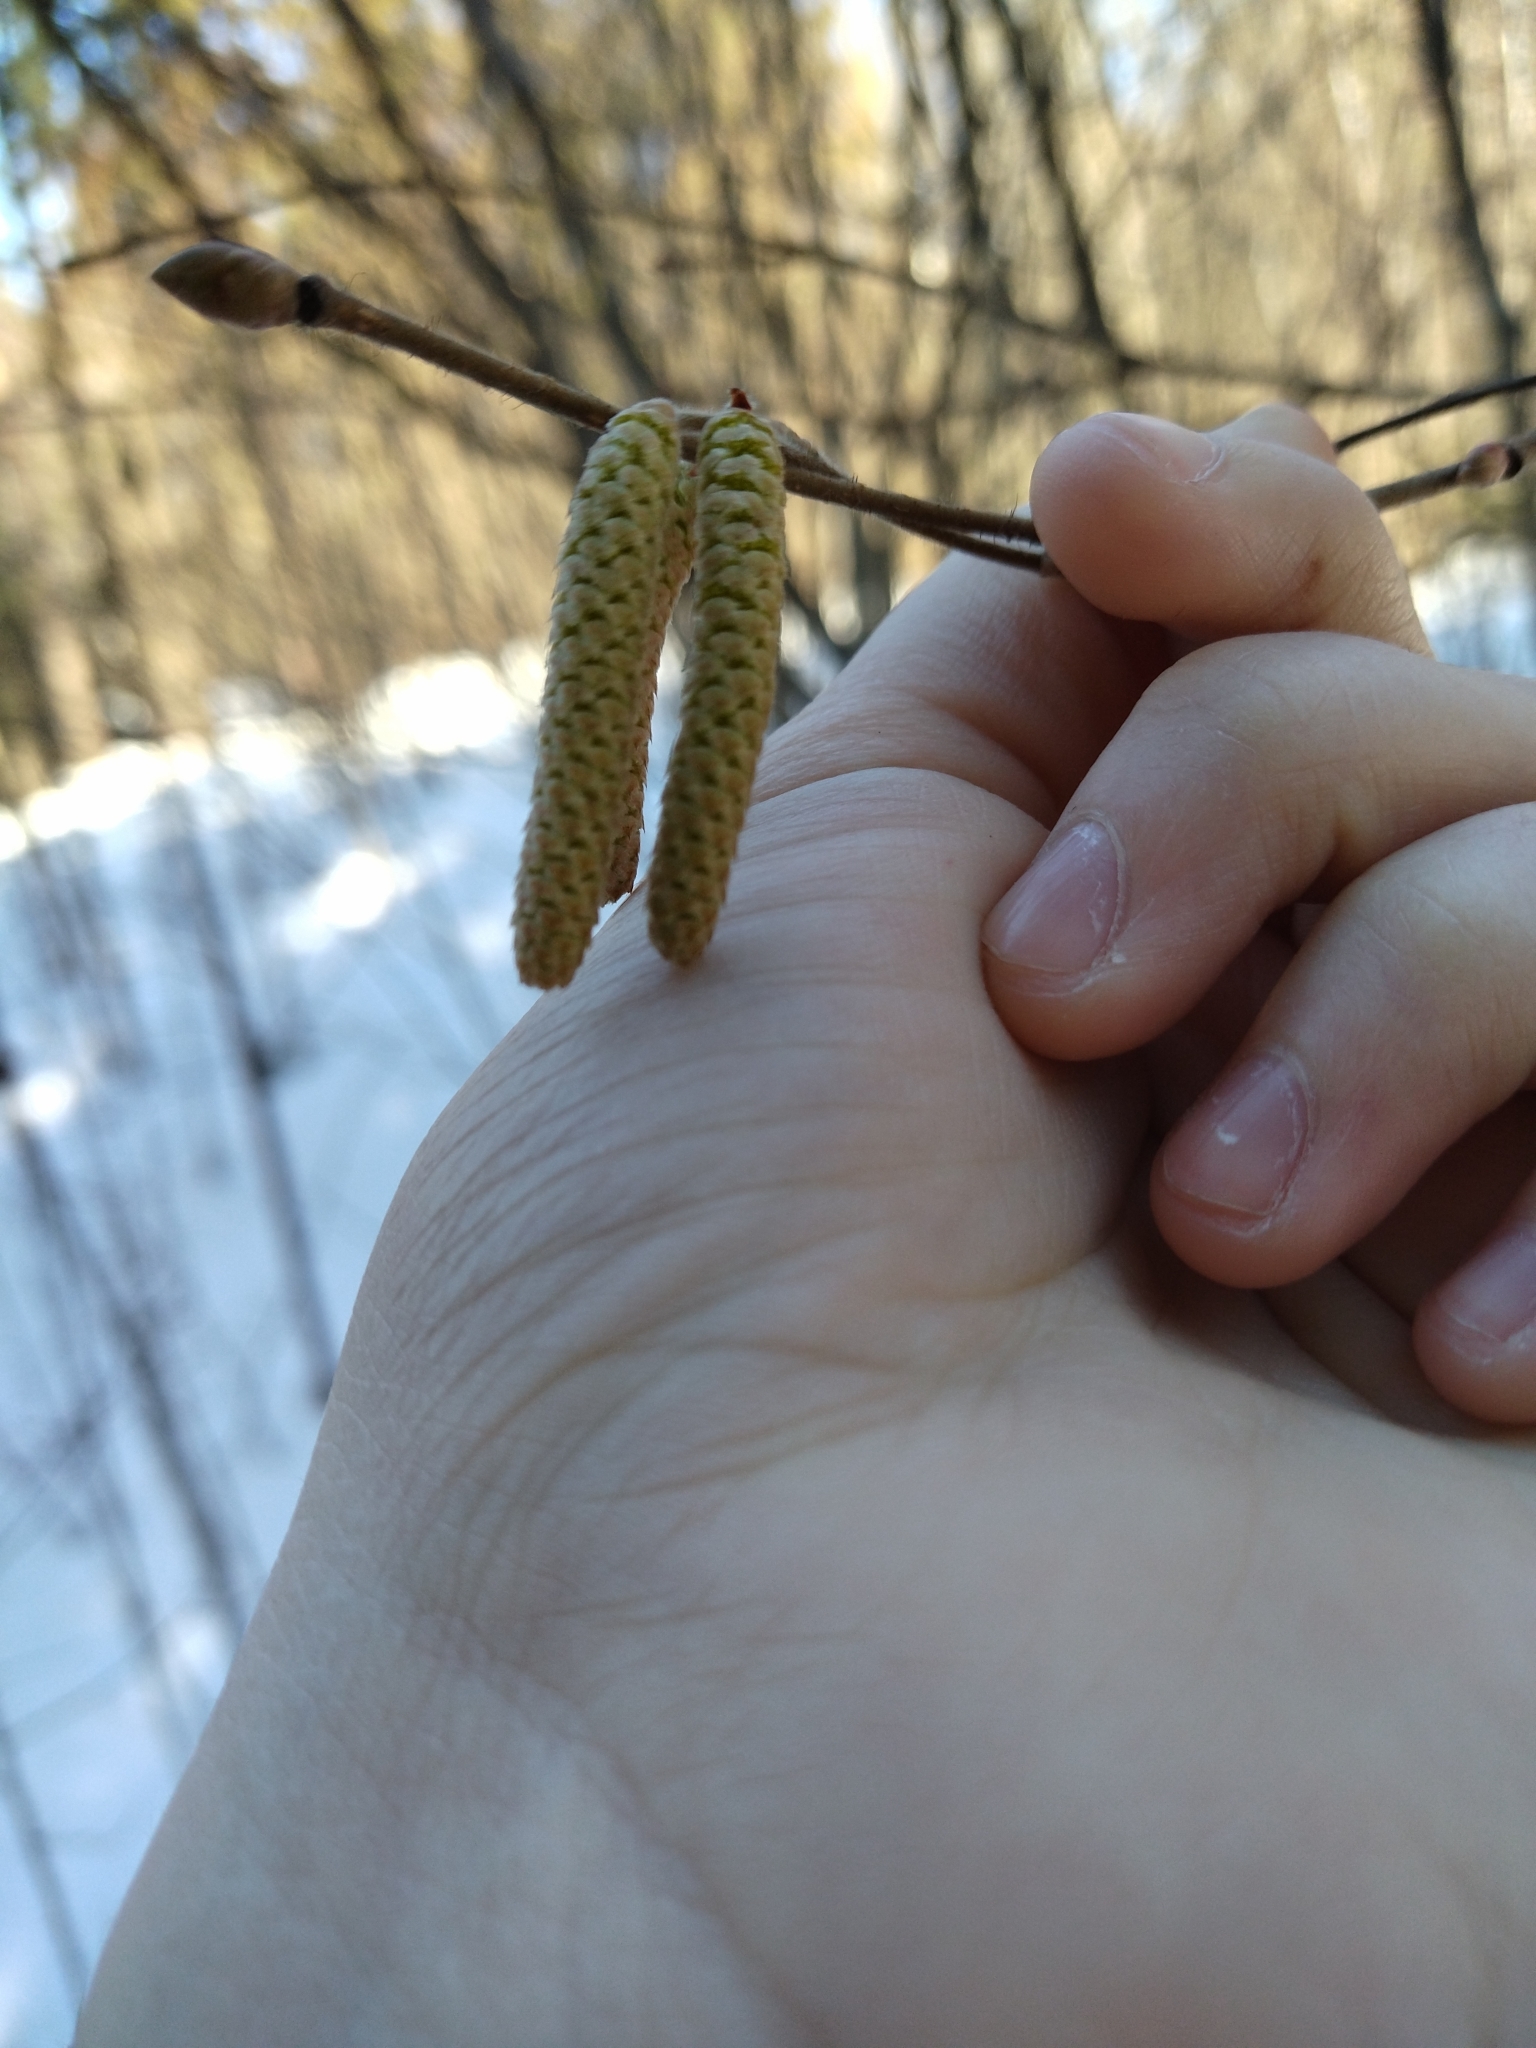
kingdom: Plantae
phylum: Tracheophyta
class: Magnoliopsida
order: Fagales
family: Betulaceae
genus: Corylus
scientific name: Corylus avellana
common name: European hazel
